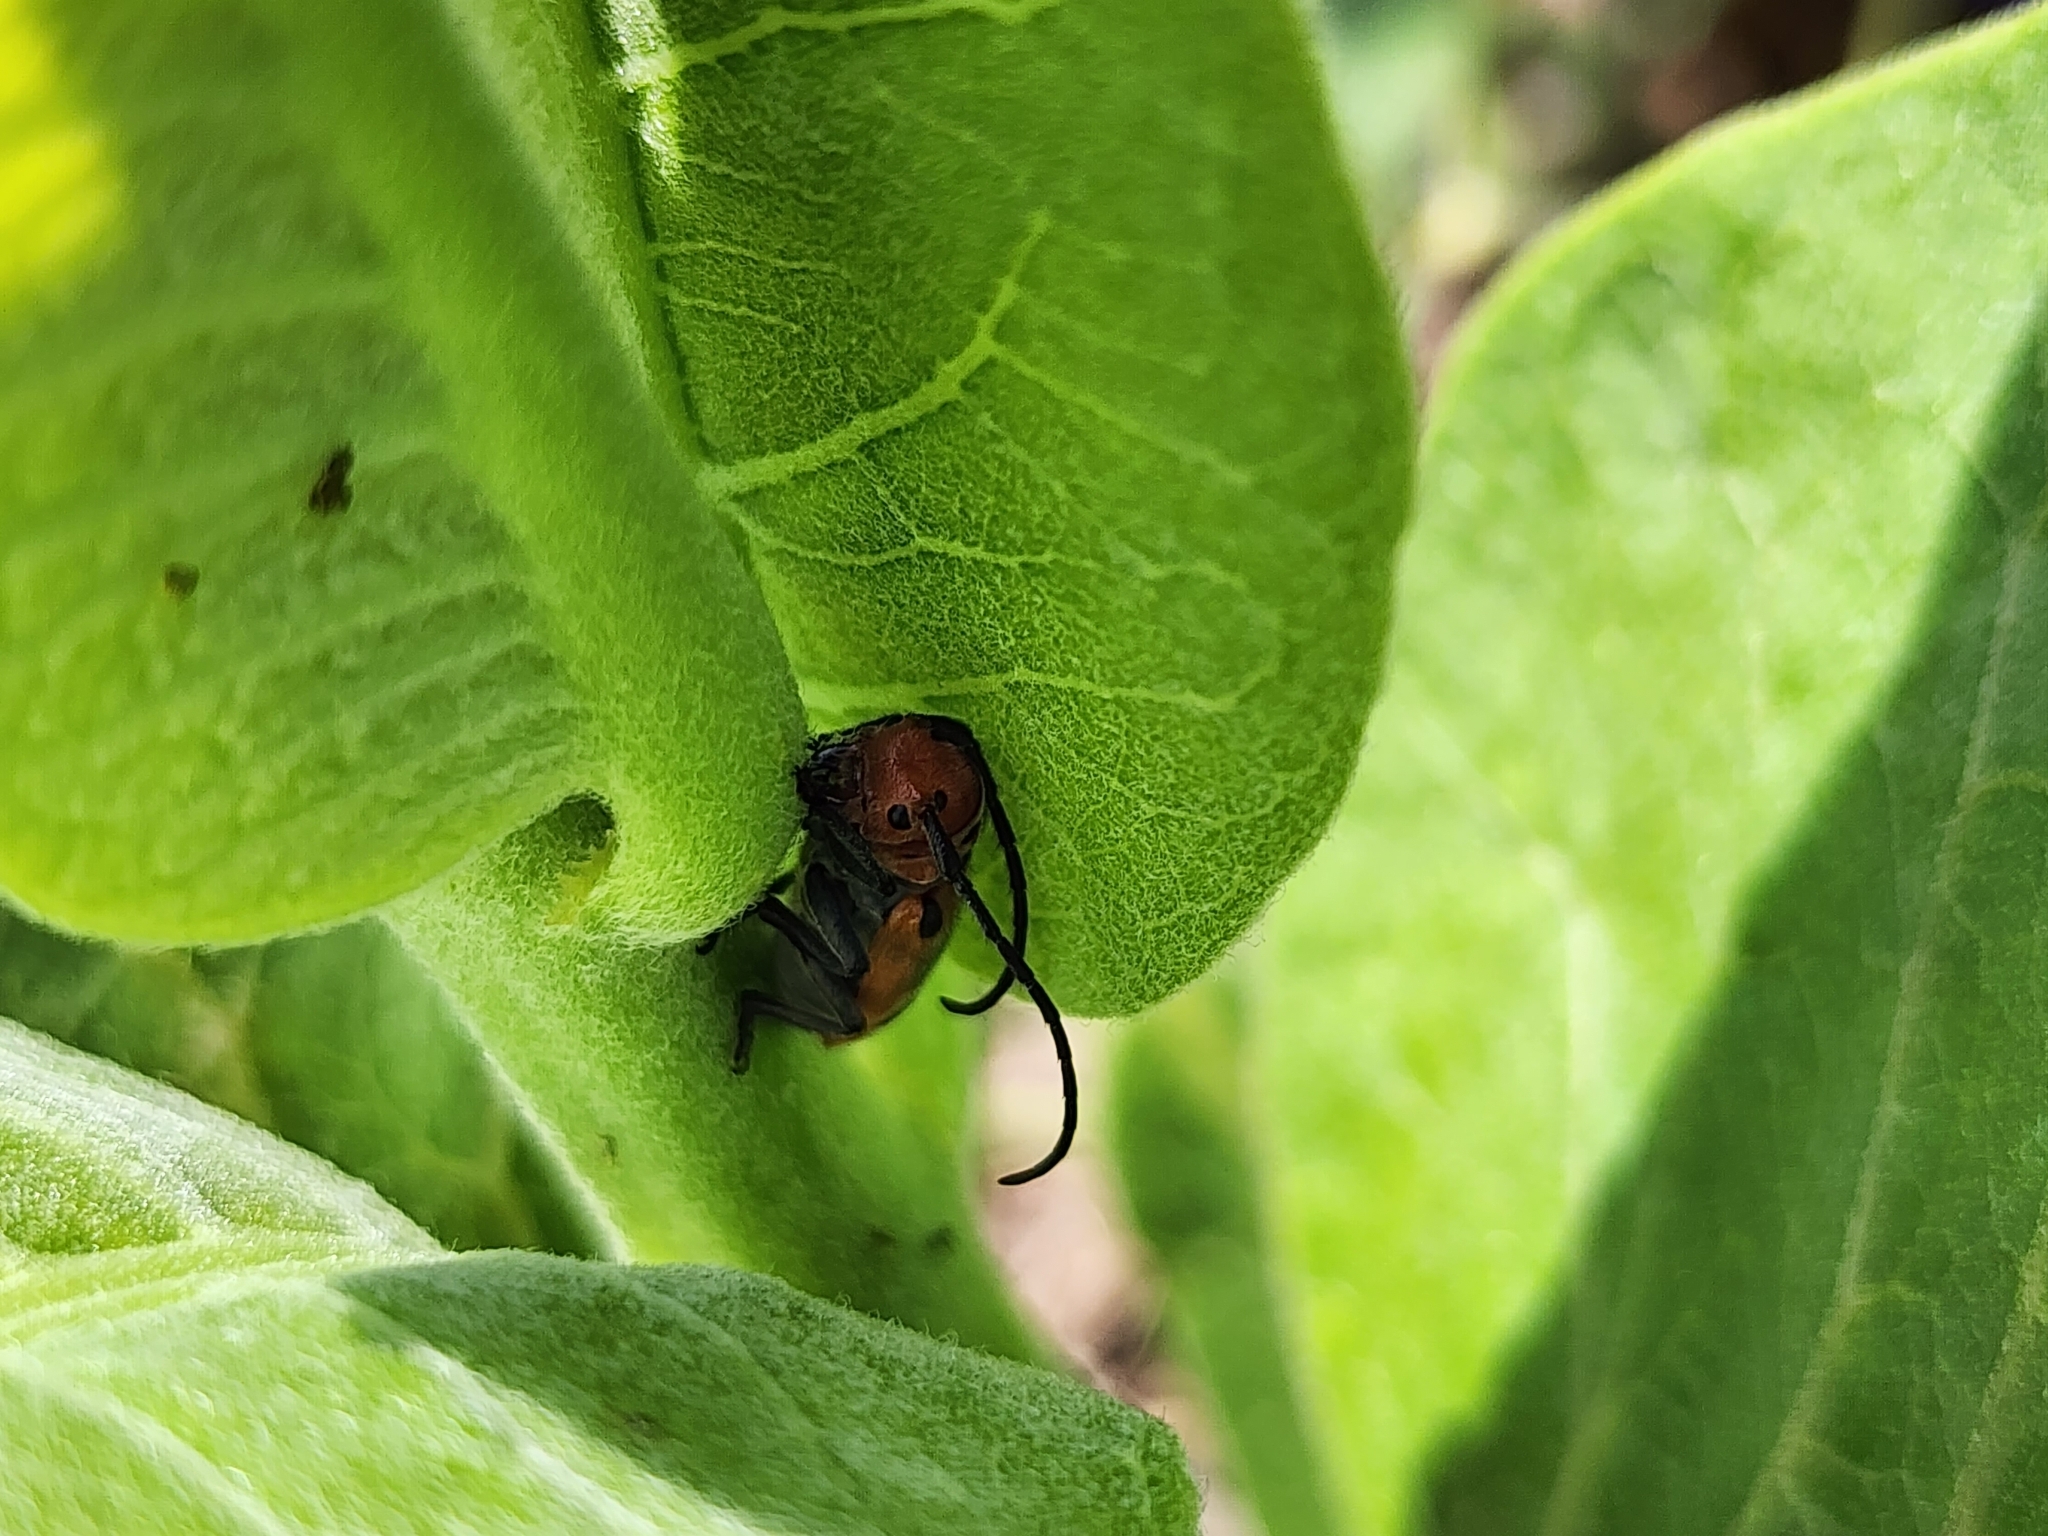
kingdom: Animalia
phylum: Arthropoda
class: Insecta
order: Coleoptera
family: Cerambycidae
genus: Tetraopes
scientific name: Tetraopes tetrophthalmus
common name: Red milkweed beetle
